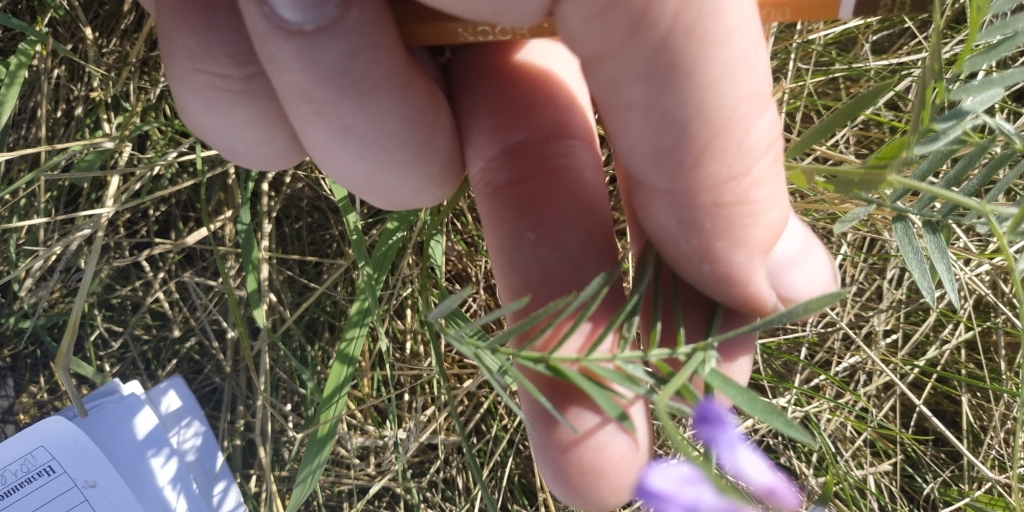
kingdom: Plantae
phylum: Tracheophyta
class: Magnoliopsida
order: Fabales
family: Fabaceae
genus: Vicia
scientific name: Vicia cracca
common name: Bird vetch
